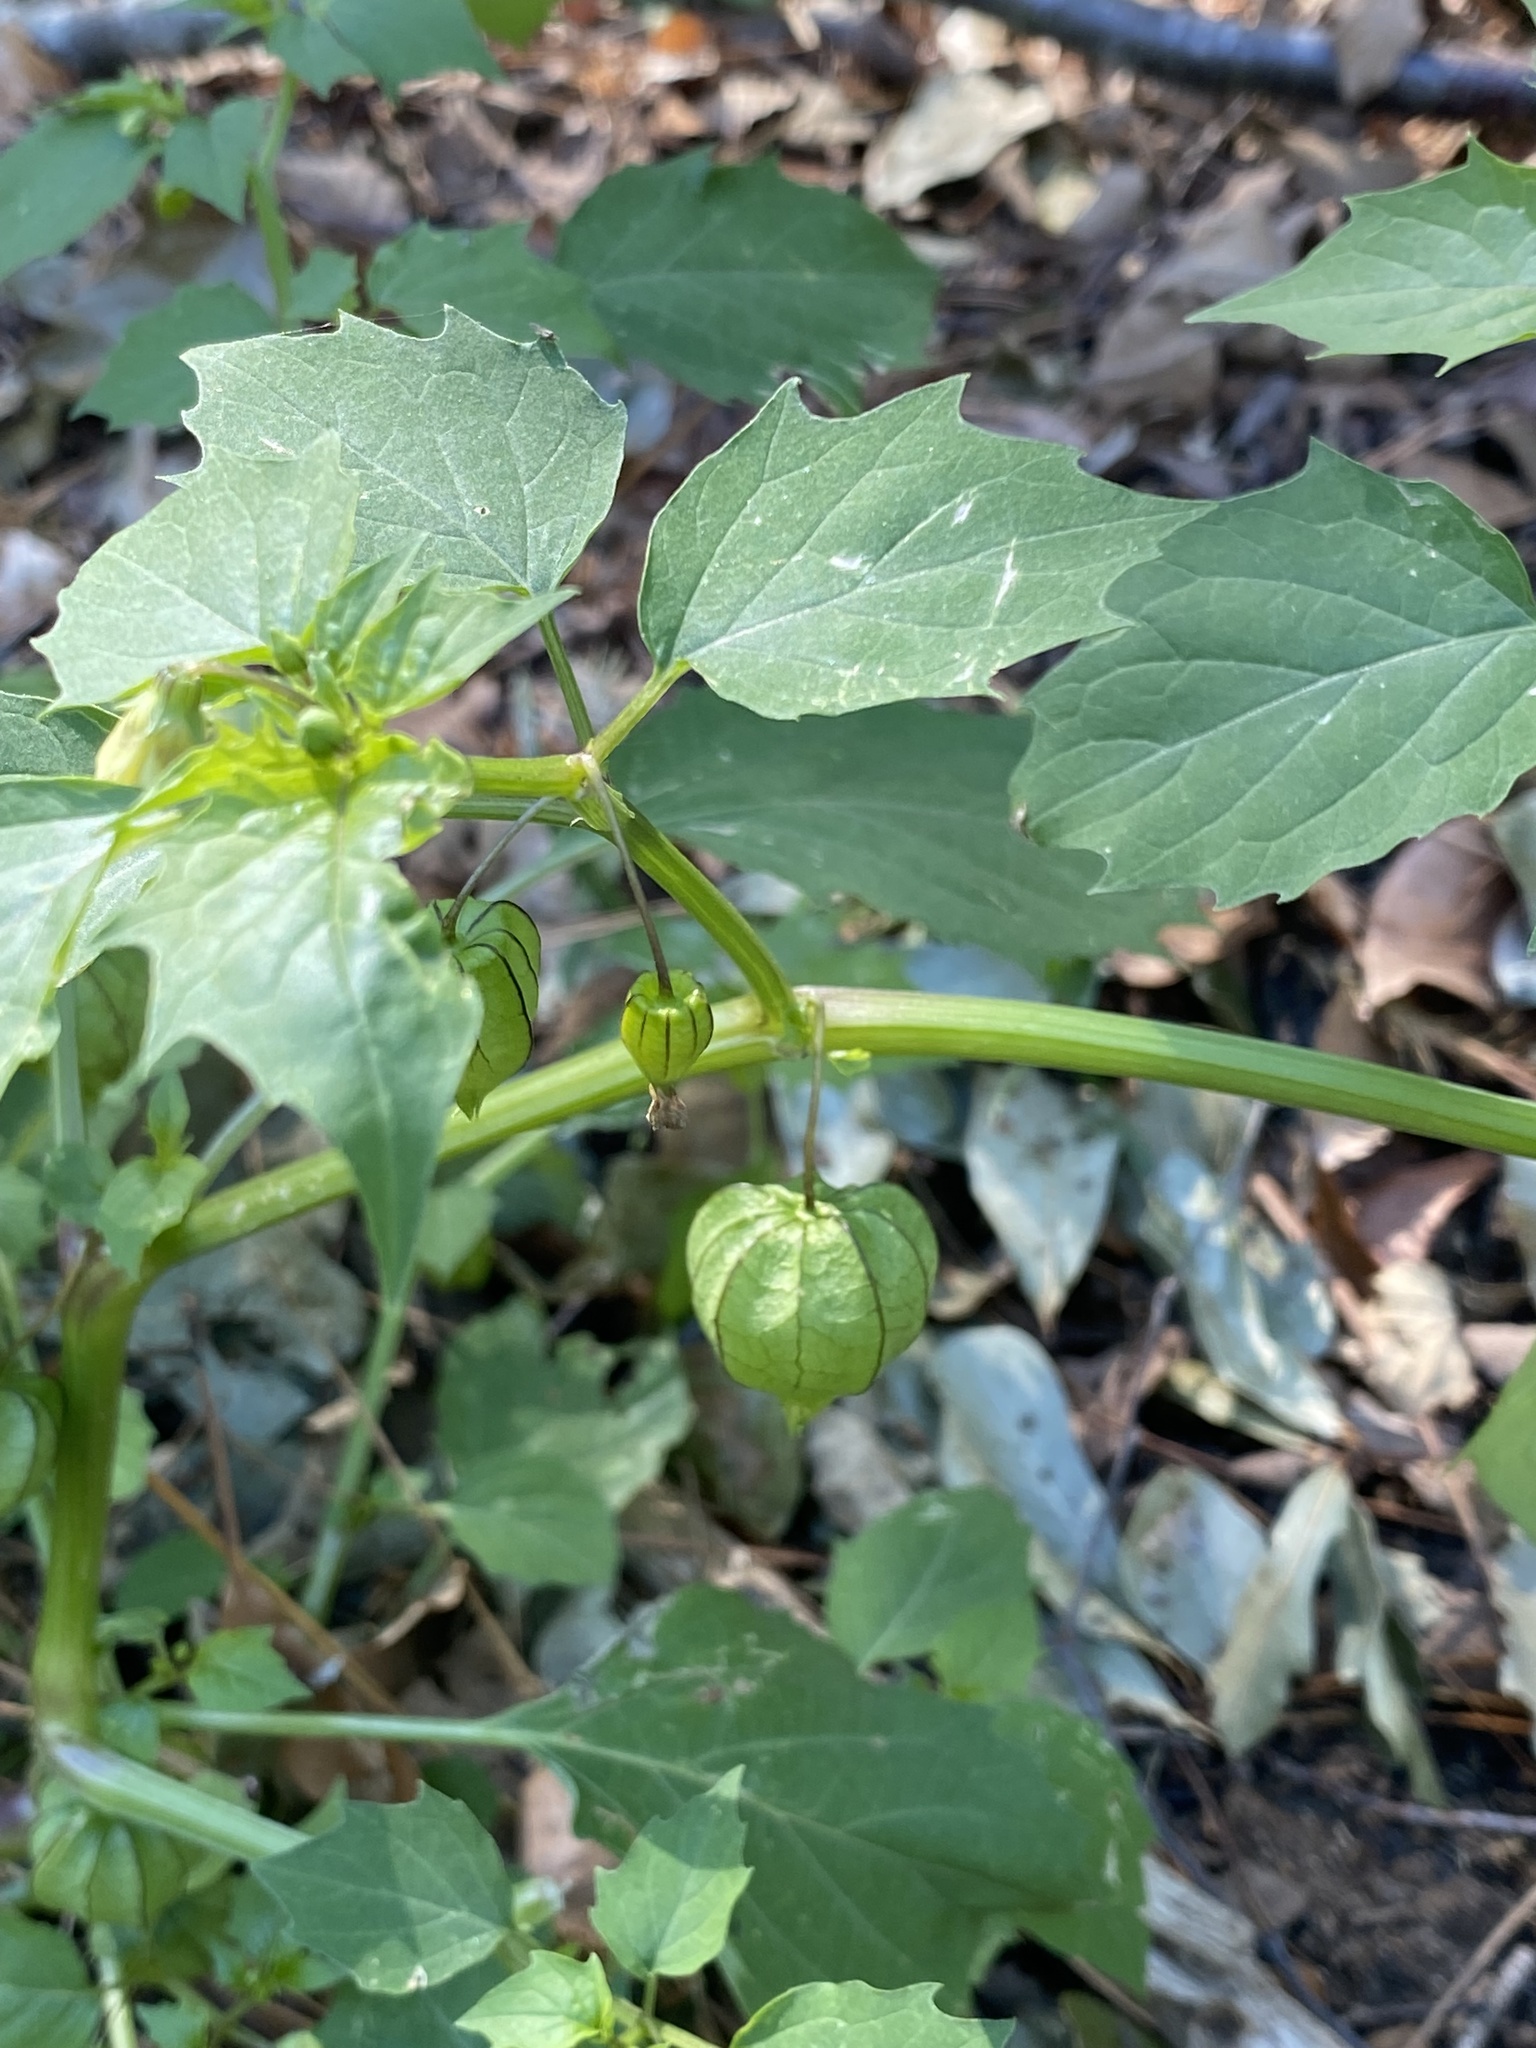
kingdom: Plantae
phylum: Tracheophyta
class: Magnoliopsida
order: Solanales
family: Solanaceae
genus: Physalis
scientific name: Physalis angulata
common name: Angular winter-cherry
